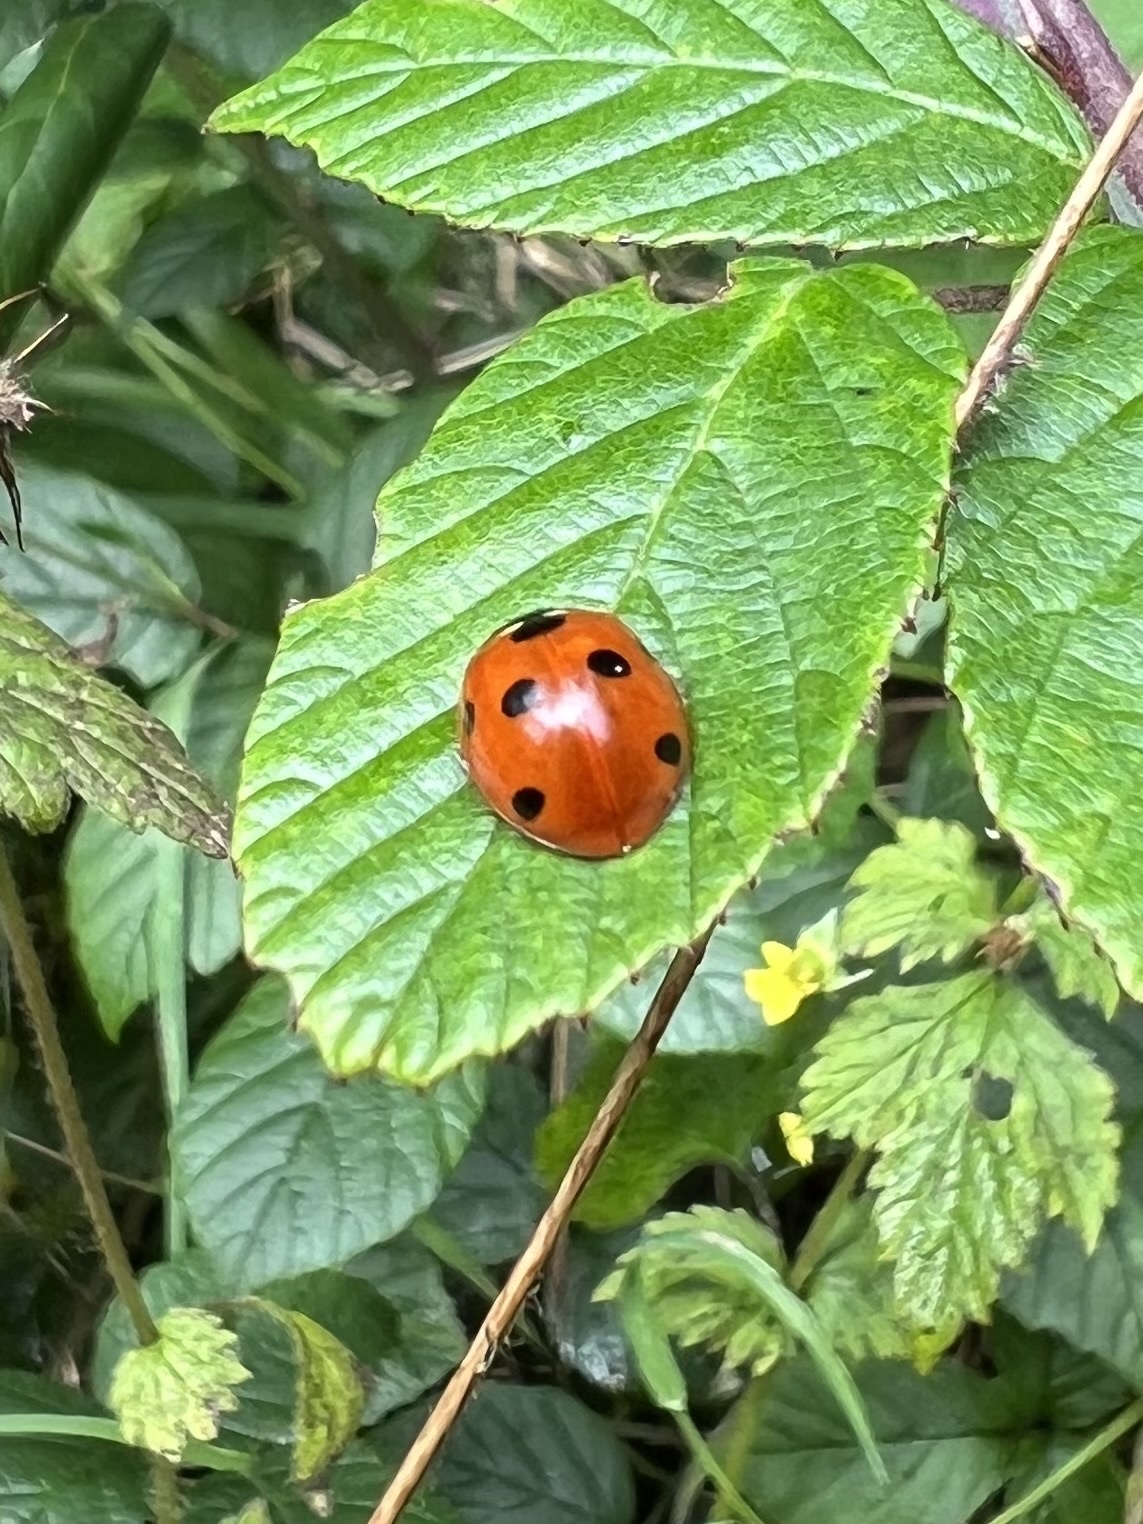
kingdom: Animalia
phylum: Arthropoda
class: Insecta
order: Coleoptera
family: Coccinellidae
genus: Coccinella
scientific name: Coccinella septempunctata
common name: Sevenspotted lady beetle
